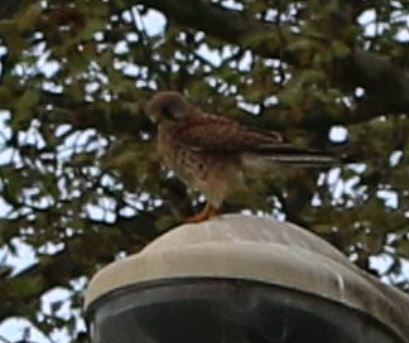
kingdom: Animalia
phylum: Chordata
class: Aves
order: Falconiformes
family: Falconidae
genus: Falco
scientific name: Falco tinnunculus
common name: Common kestrel
